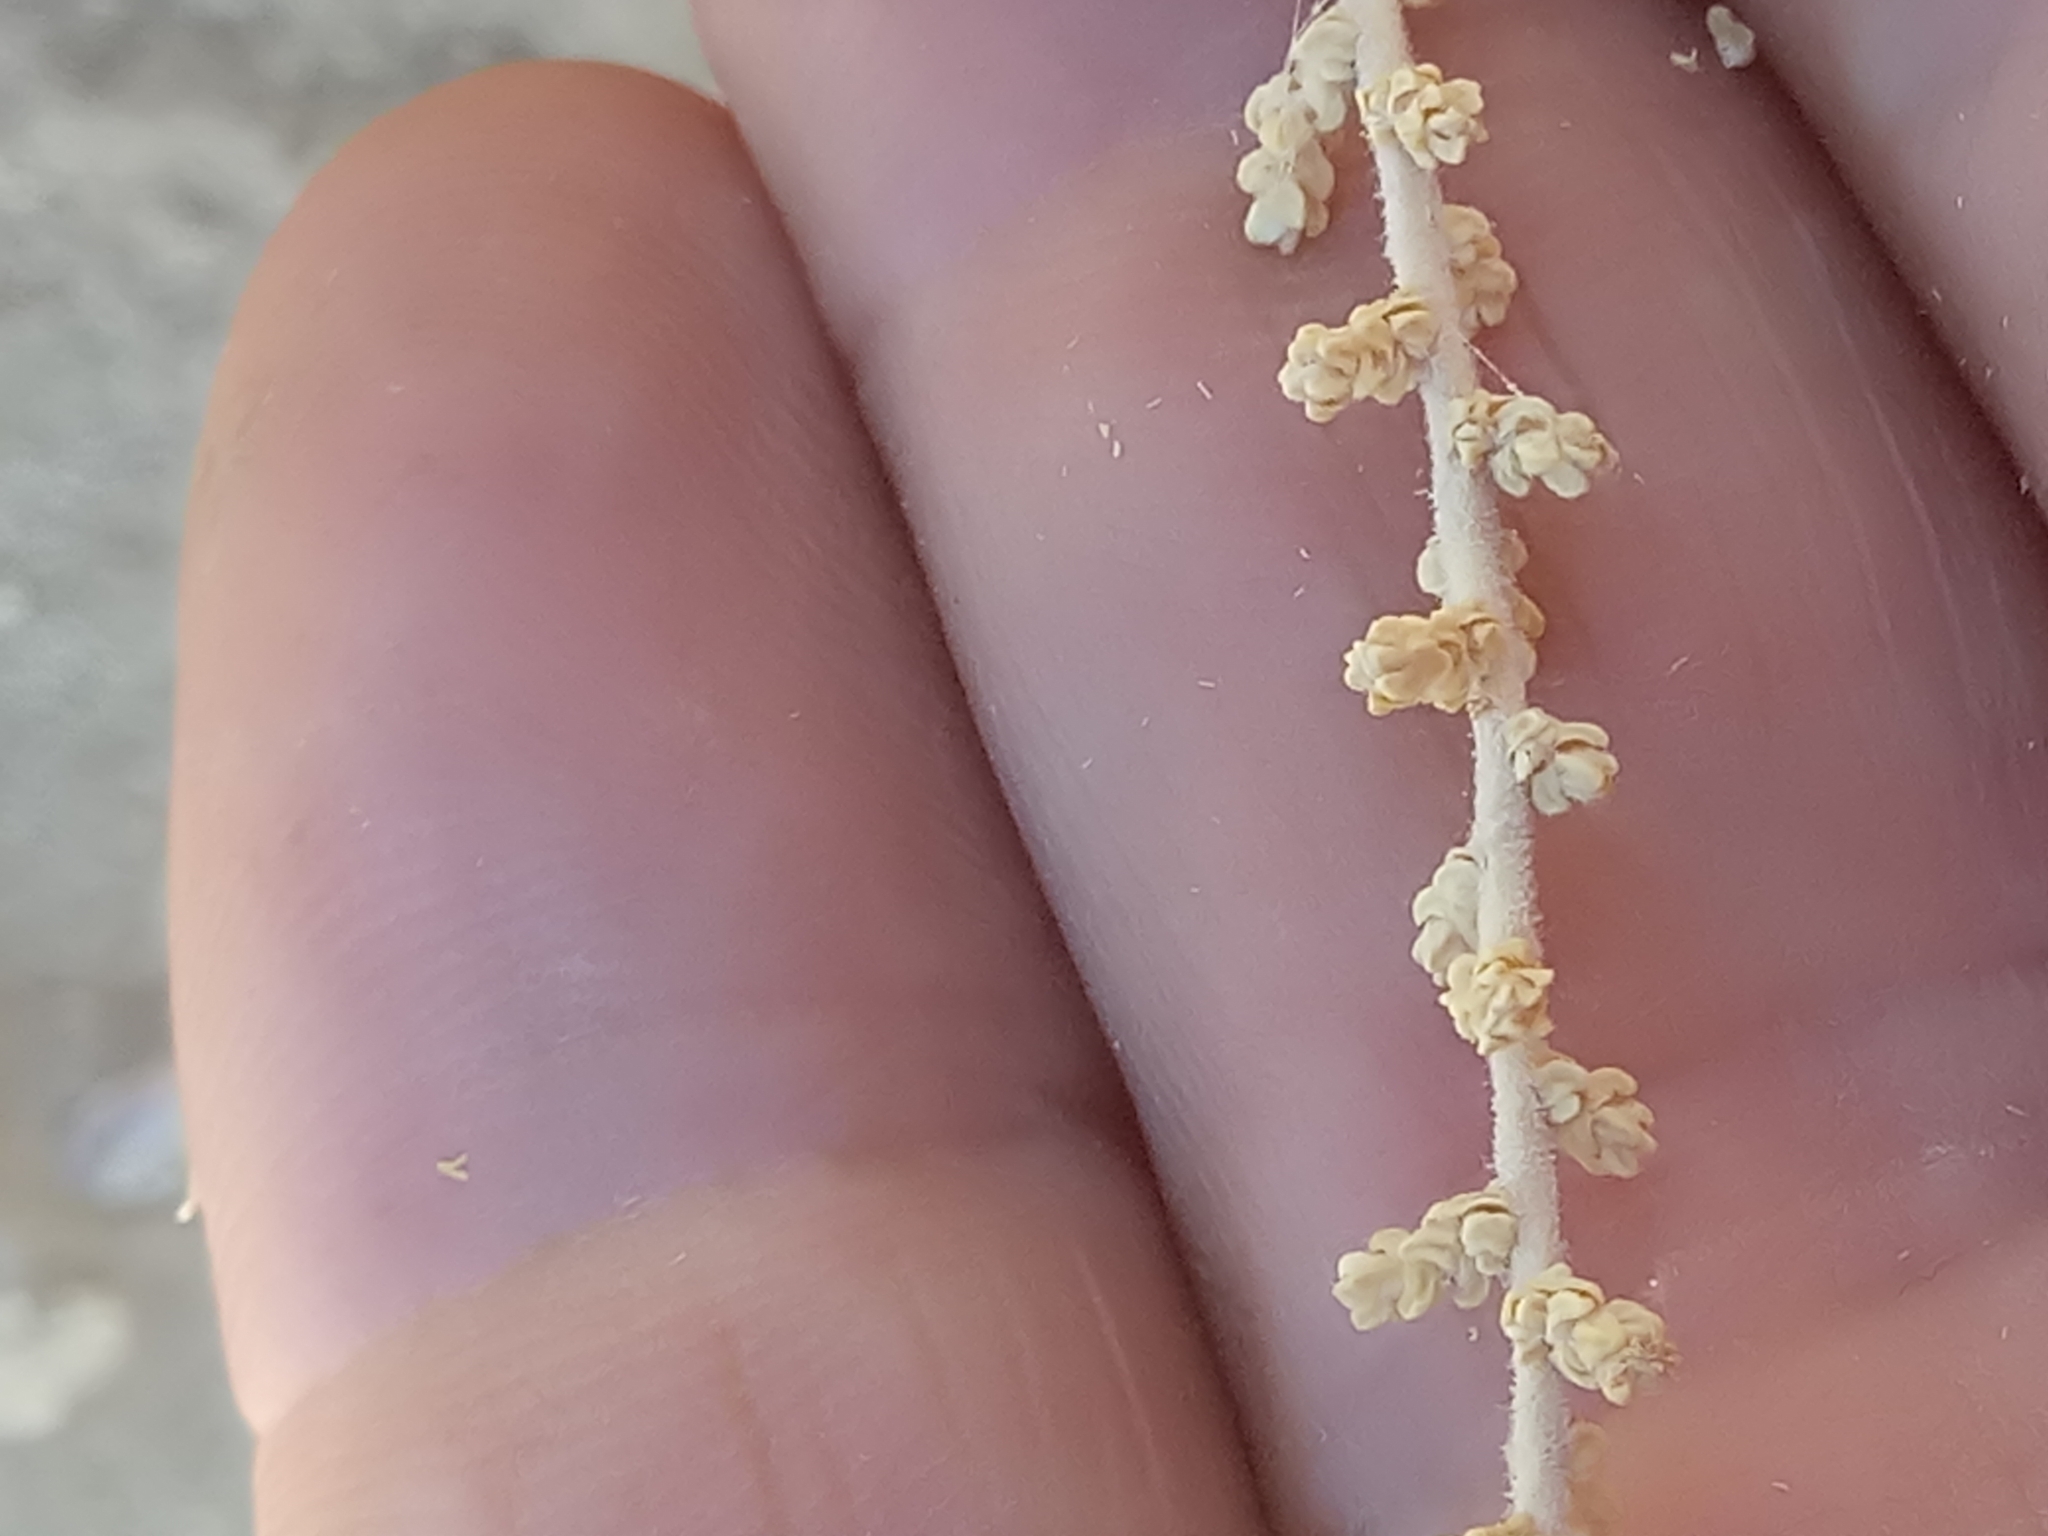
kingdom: Plantae
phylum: Tracheophyta
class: Magnoliopsida
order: Caryophyllales
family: Amaranthaceae
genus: Nitrosalsola
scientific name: Nitrosalsola gaetula
